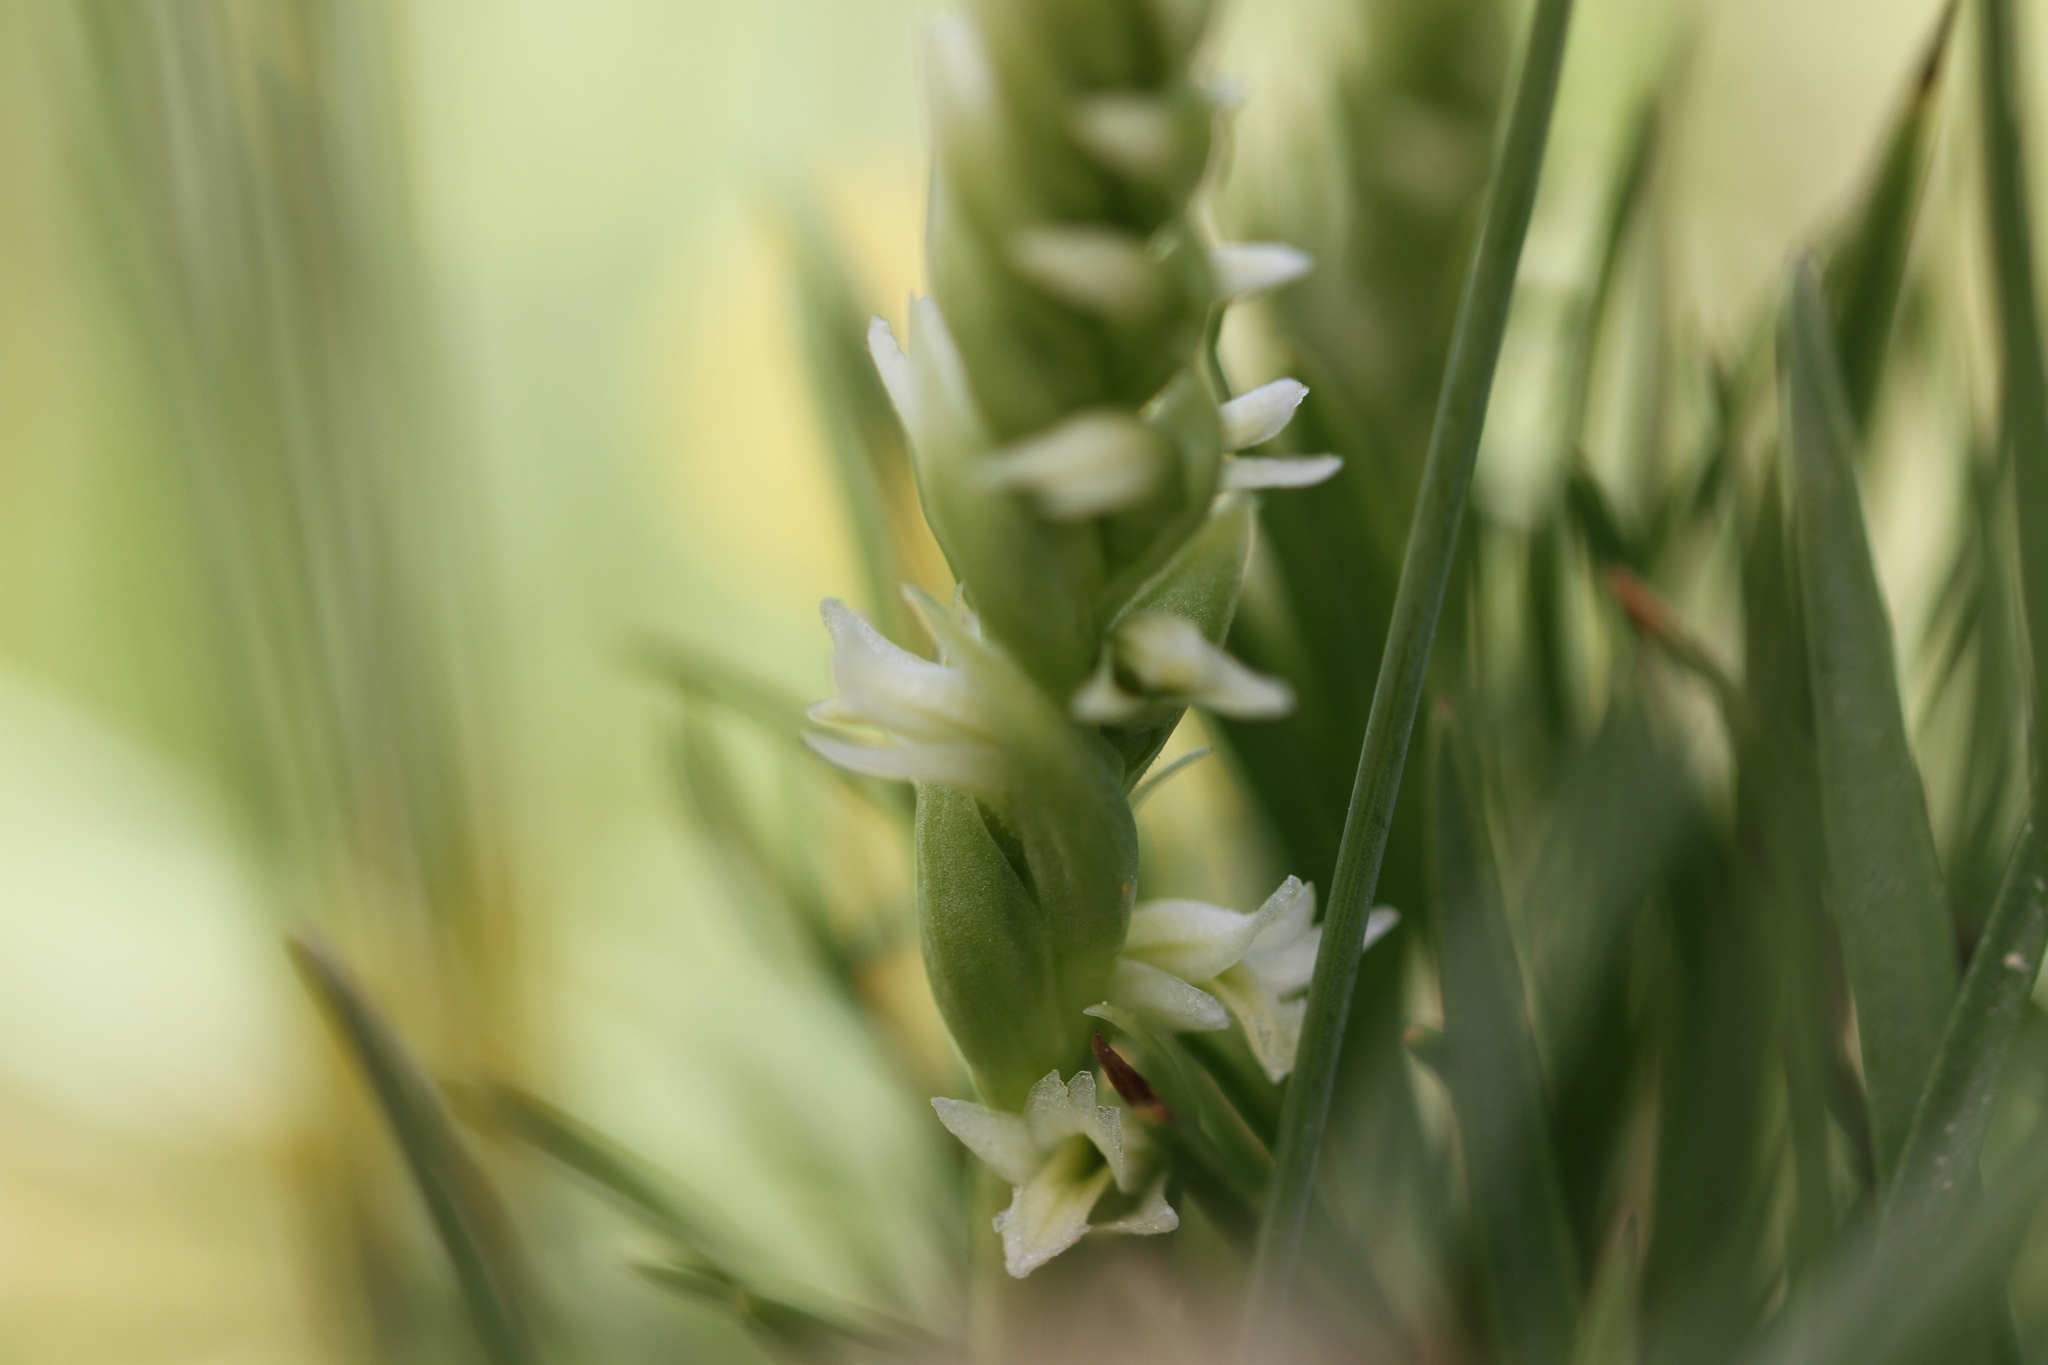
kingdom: Plantae
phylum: Tracheophyta
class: Liliopsida
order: Asparagales
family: Orchidaceae
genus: Spiranthes
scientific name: Spiranthes stellata
